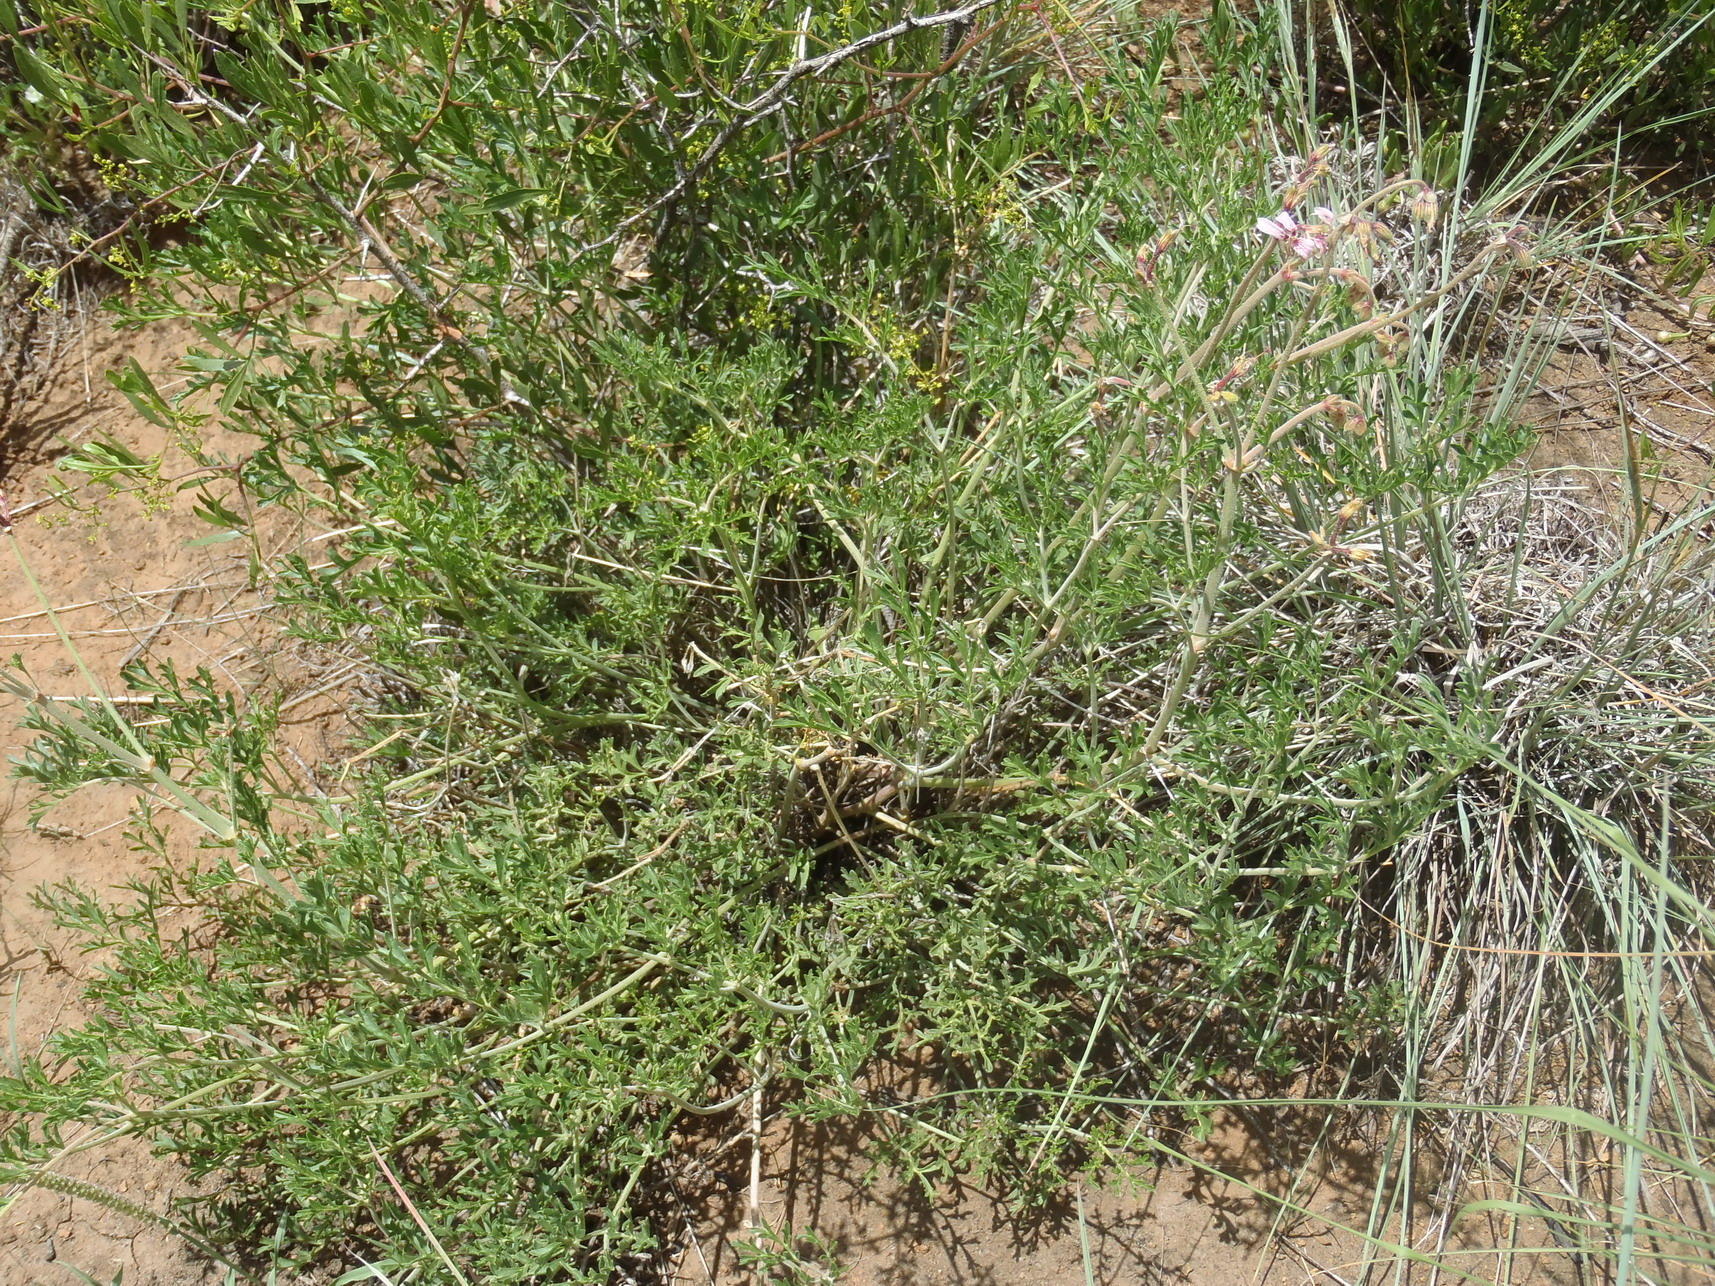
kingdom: Plantae
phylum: Tracheophyta
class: Magnoliopsida
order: Geraniales
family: Geraniaceae
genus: Pelargonium
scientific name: Pelargonium dolomiticum
